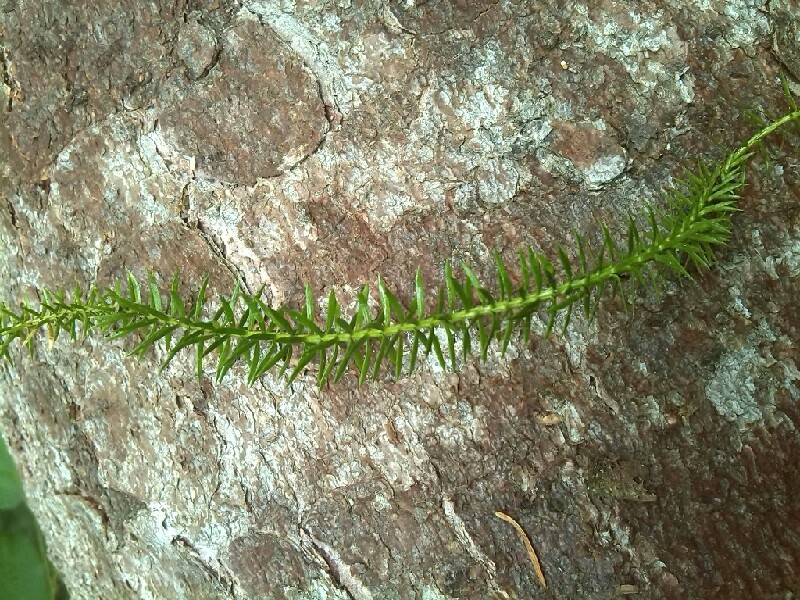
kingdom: Plantae
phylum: Tracheophyta
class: Lycopodiopsida
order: Lycopodiales
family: Lycopodiaceae
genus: Spinulum
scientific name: Spinulum annotinum
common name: Interrupted club-moss
